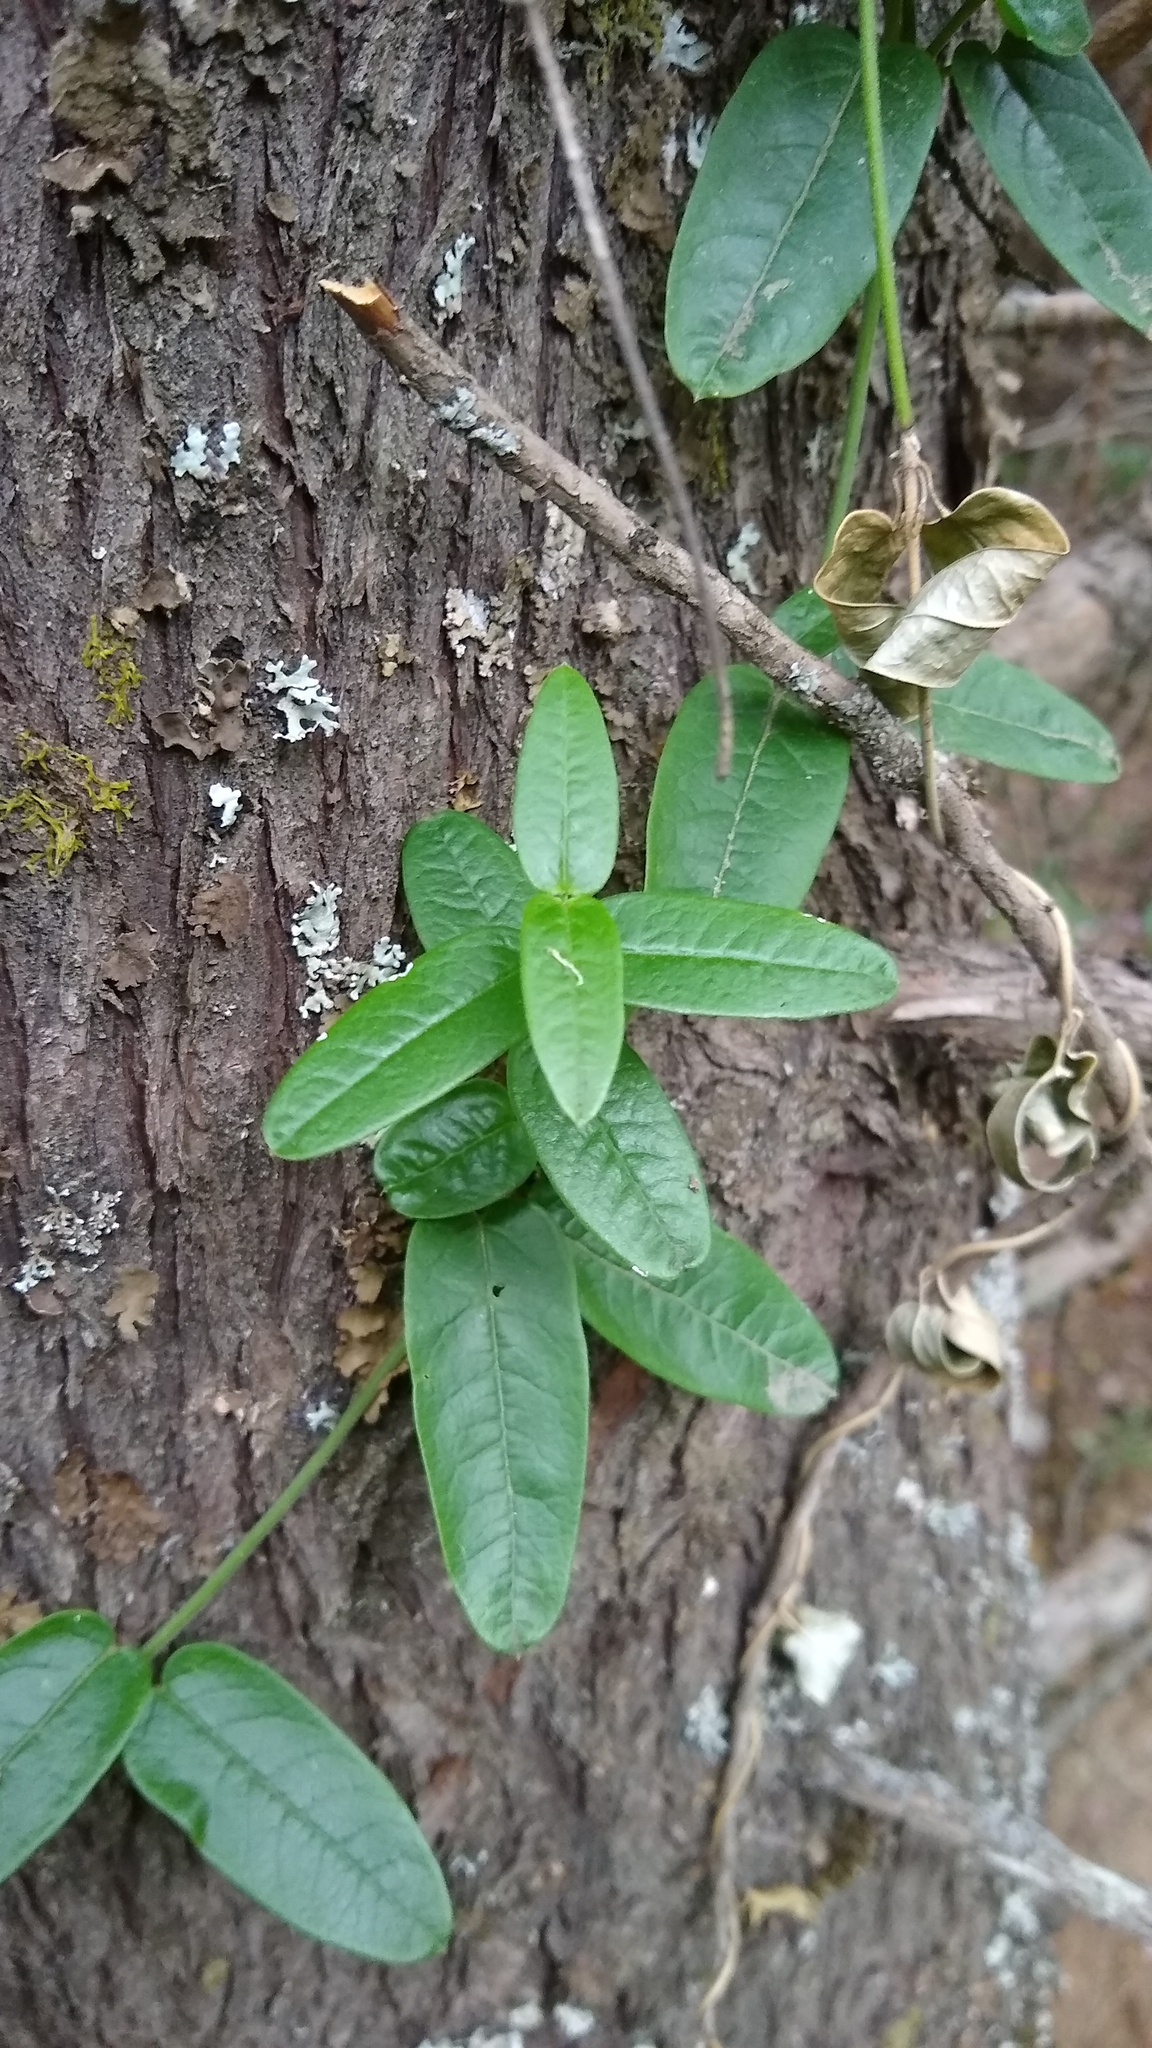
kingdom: Plantae
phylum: Tracheophyta
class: Magnoliopsida
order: Gentianales
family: Apocynaceae
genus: Diplolepis
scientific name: Diplolepis diemii
